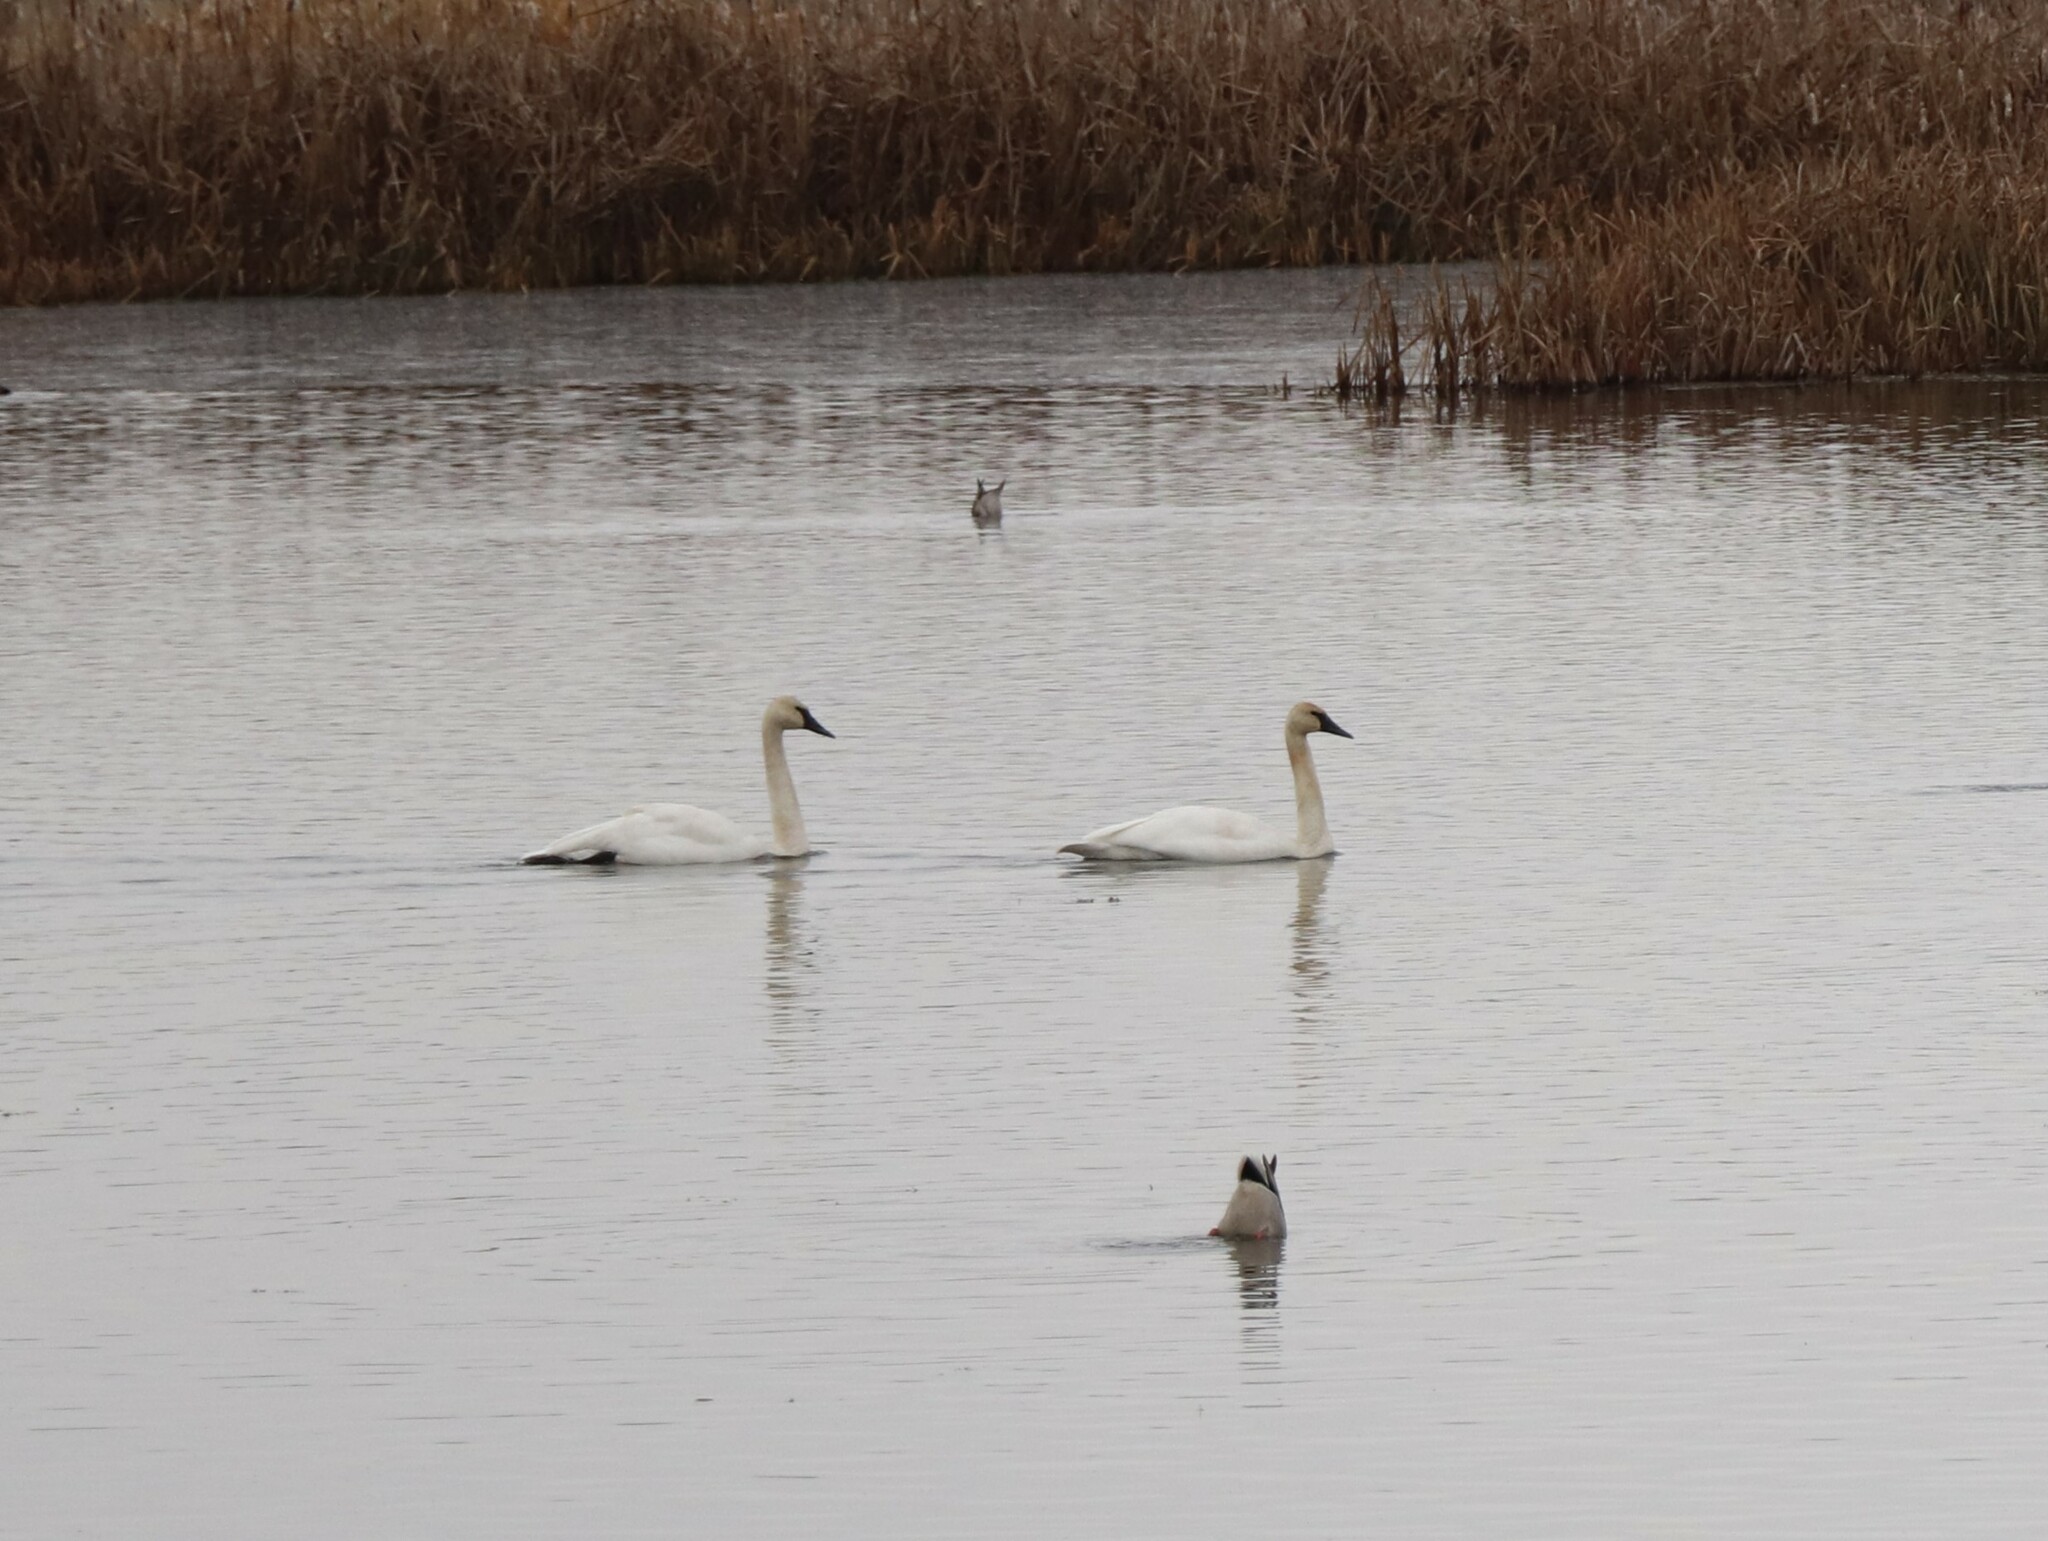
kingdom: Animalia
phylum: Chordata
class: Aves
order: Anseriformes
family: Anatidae
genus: Cygnus
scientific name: Cygnus buccinator
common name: Trumpeter swan
